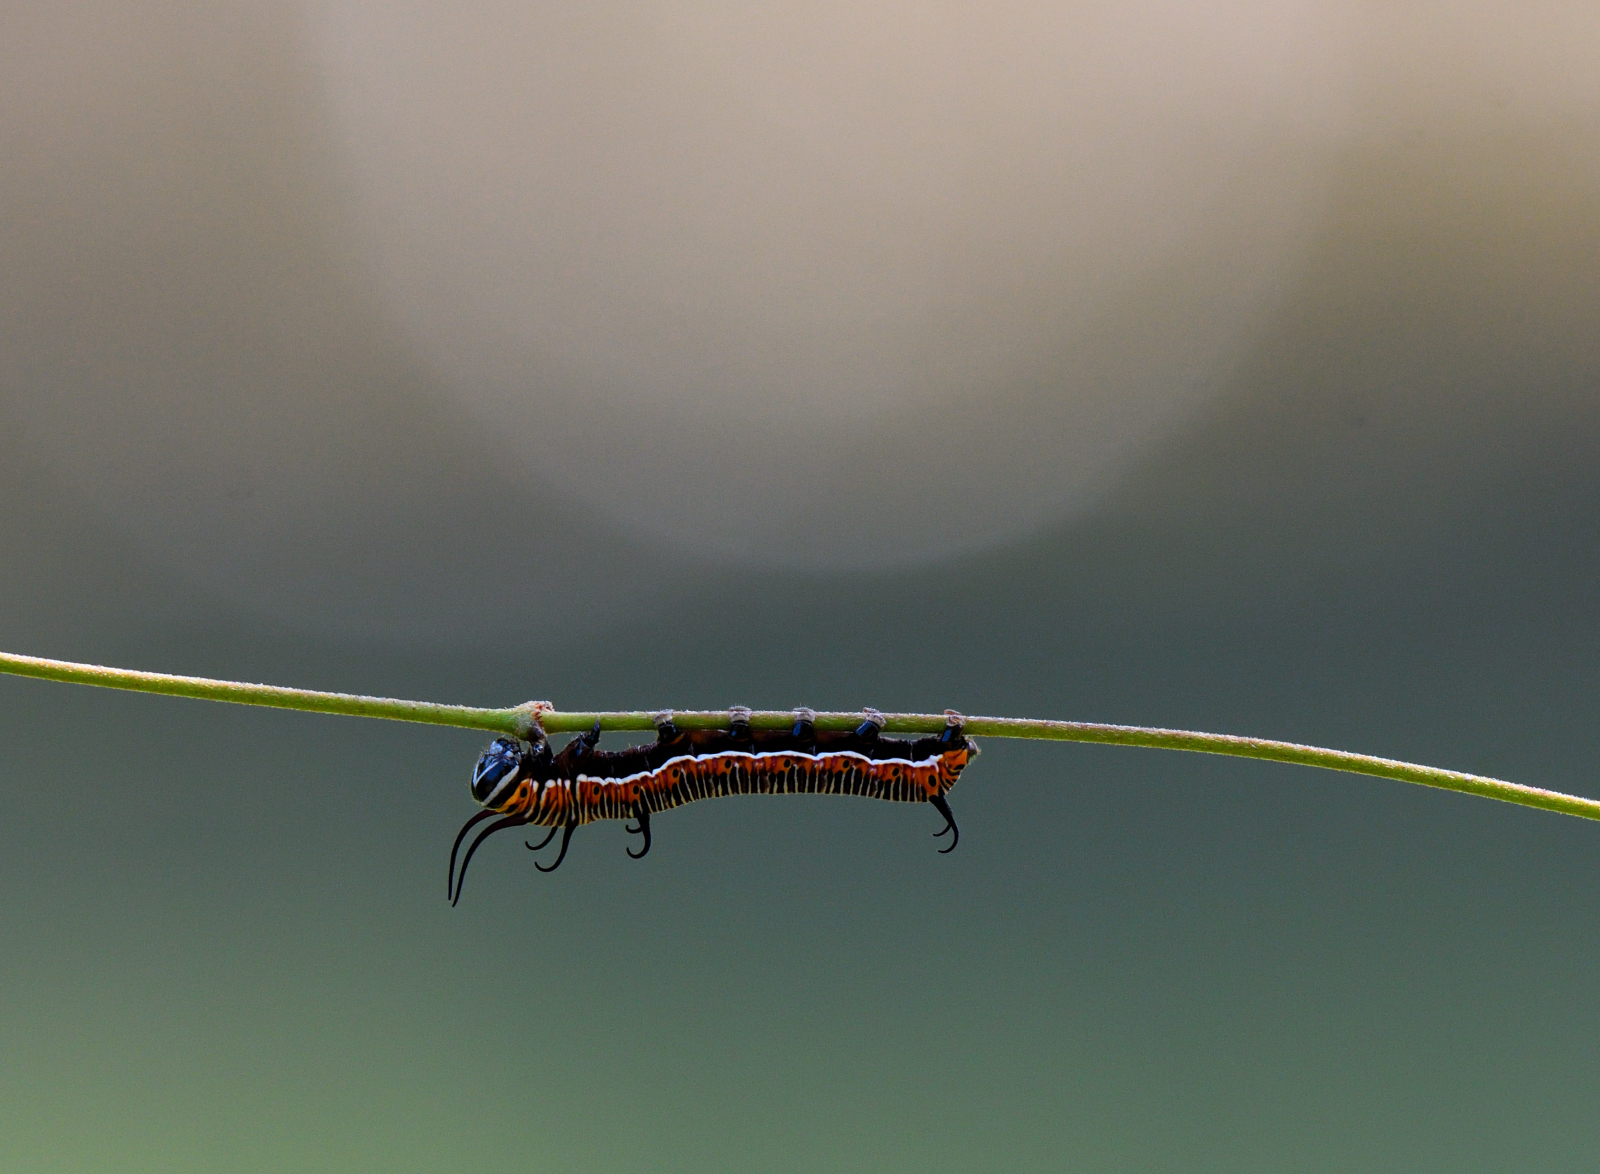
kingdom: Animalia
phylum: Arthropoda
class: Insecta
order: Lepidoptera
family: Nymphalidae
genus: Euploea
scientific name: Euploea core
